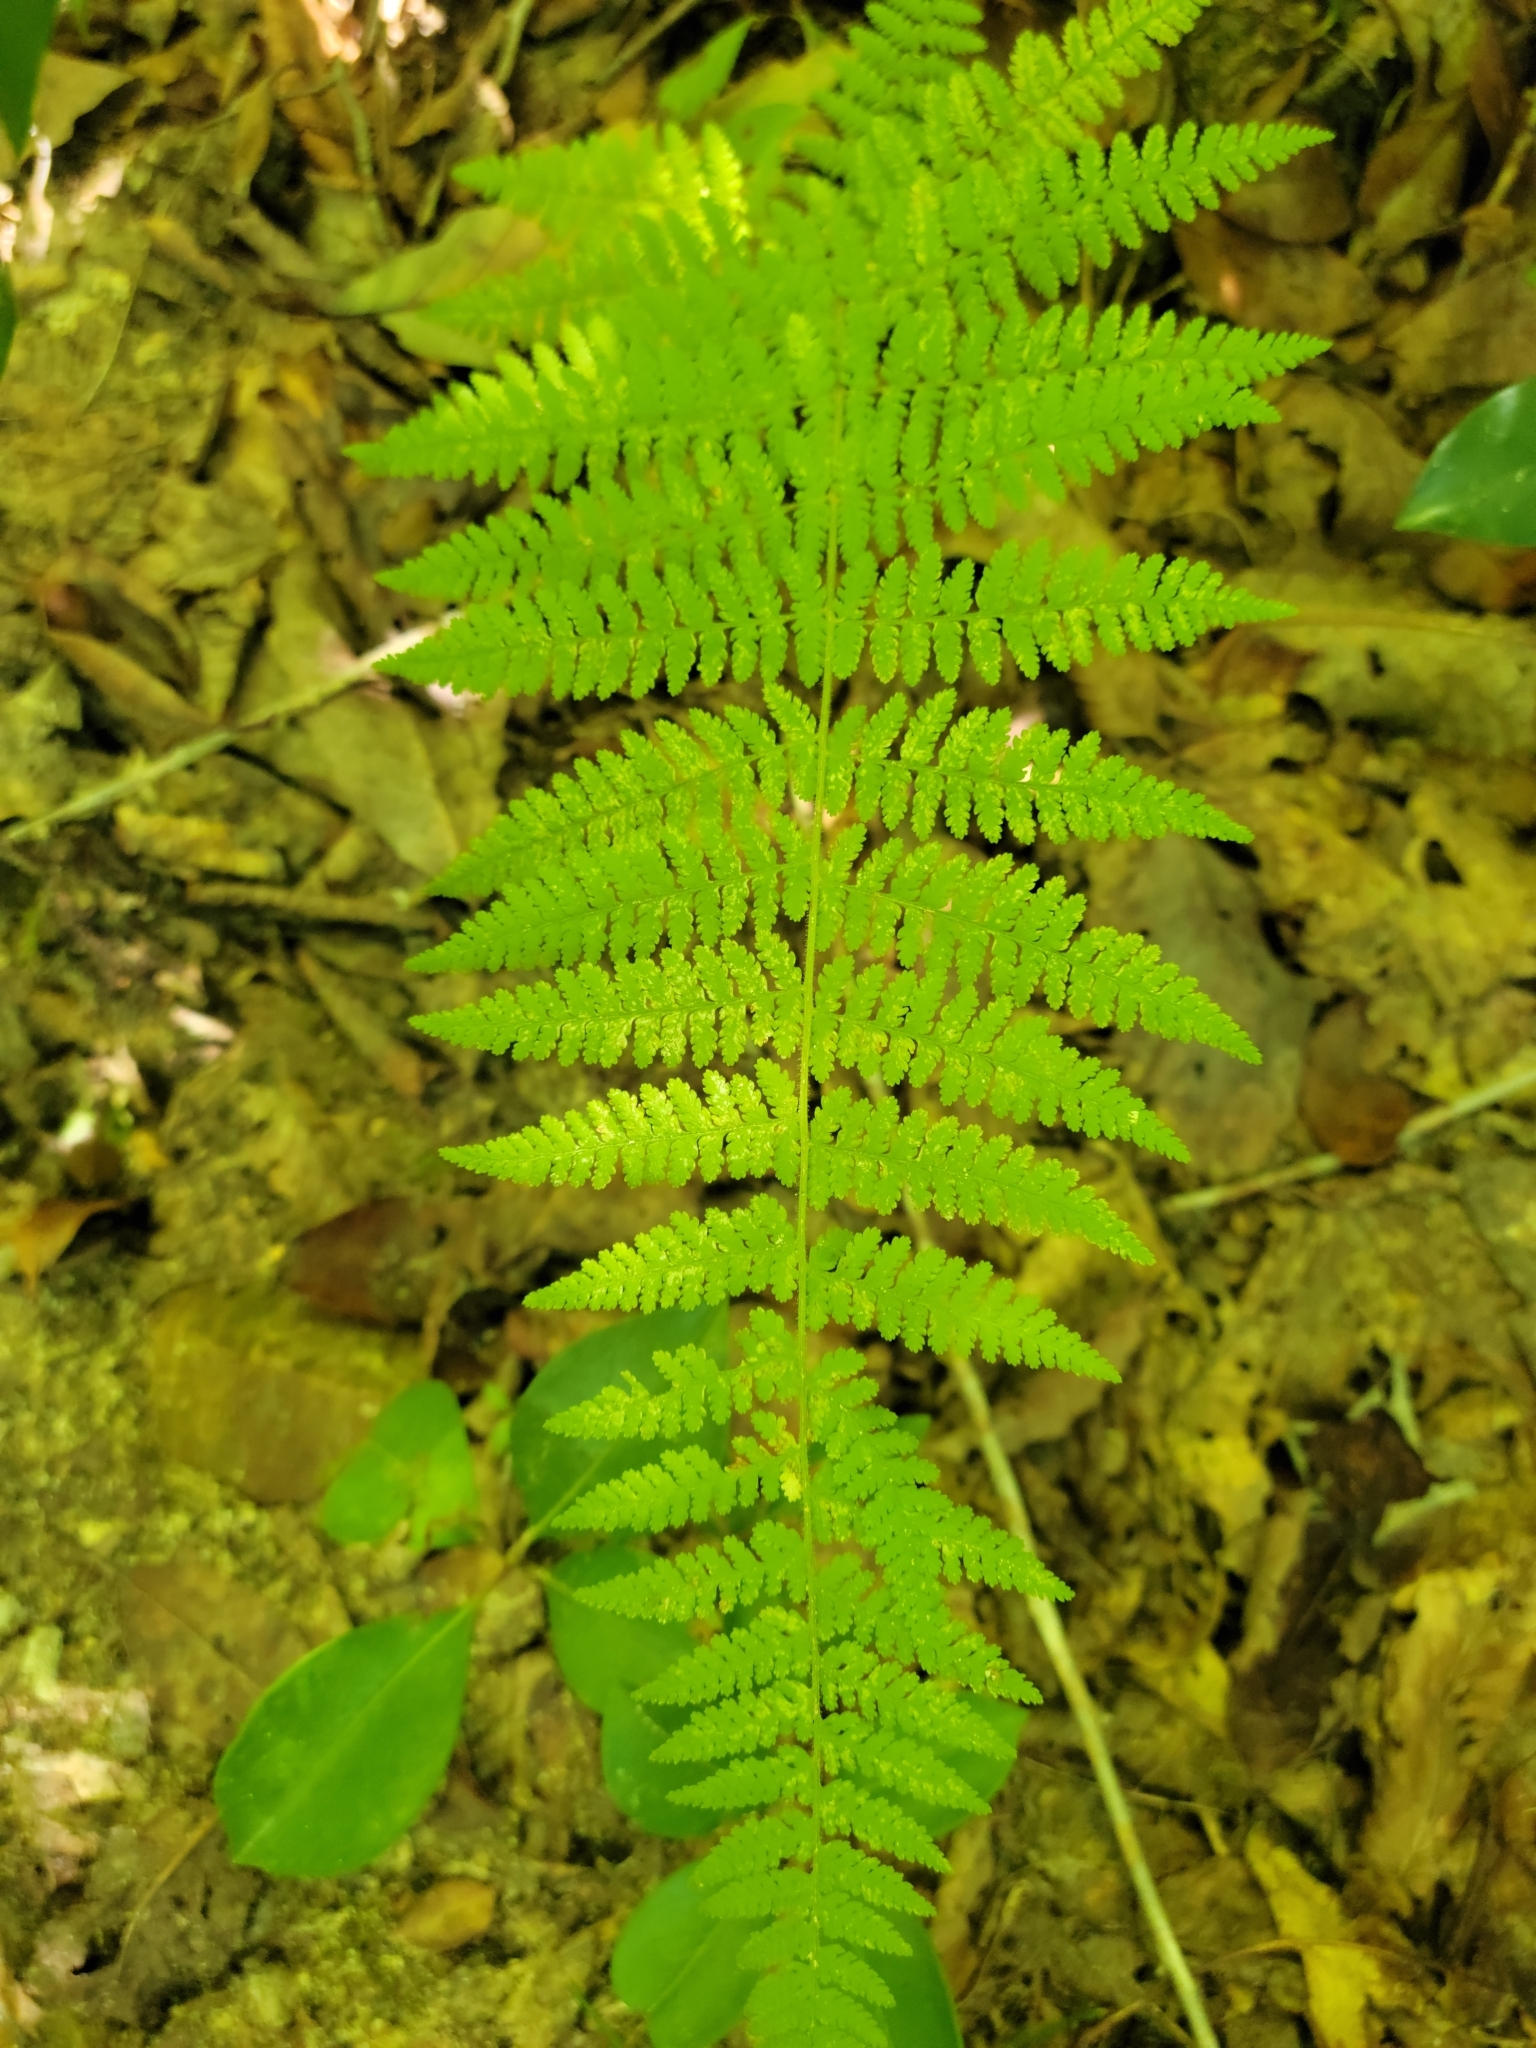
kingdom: Plantae
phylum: Tracheophyta
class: Polypodiopsida
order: Polypodiales
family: Dennstaedtiaceae
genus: Sitobolium
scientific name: Sitobolium punctilobum
